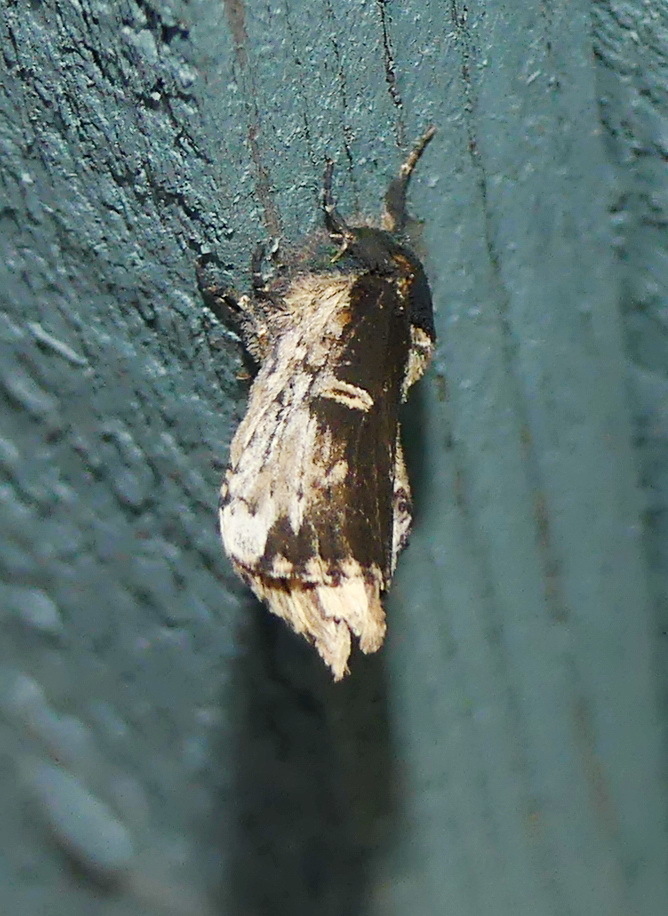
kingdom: Animalia
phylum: Arthropoda
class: Insecta
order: Lepidoptera
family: Notodontidae
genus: Schizura
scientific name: Schizura ipomaeae
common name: Morning-glory prominent
